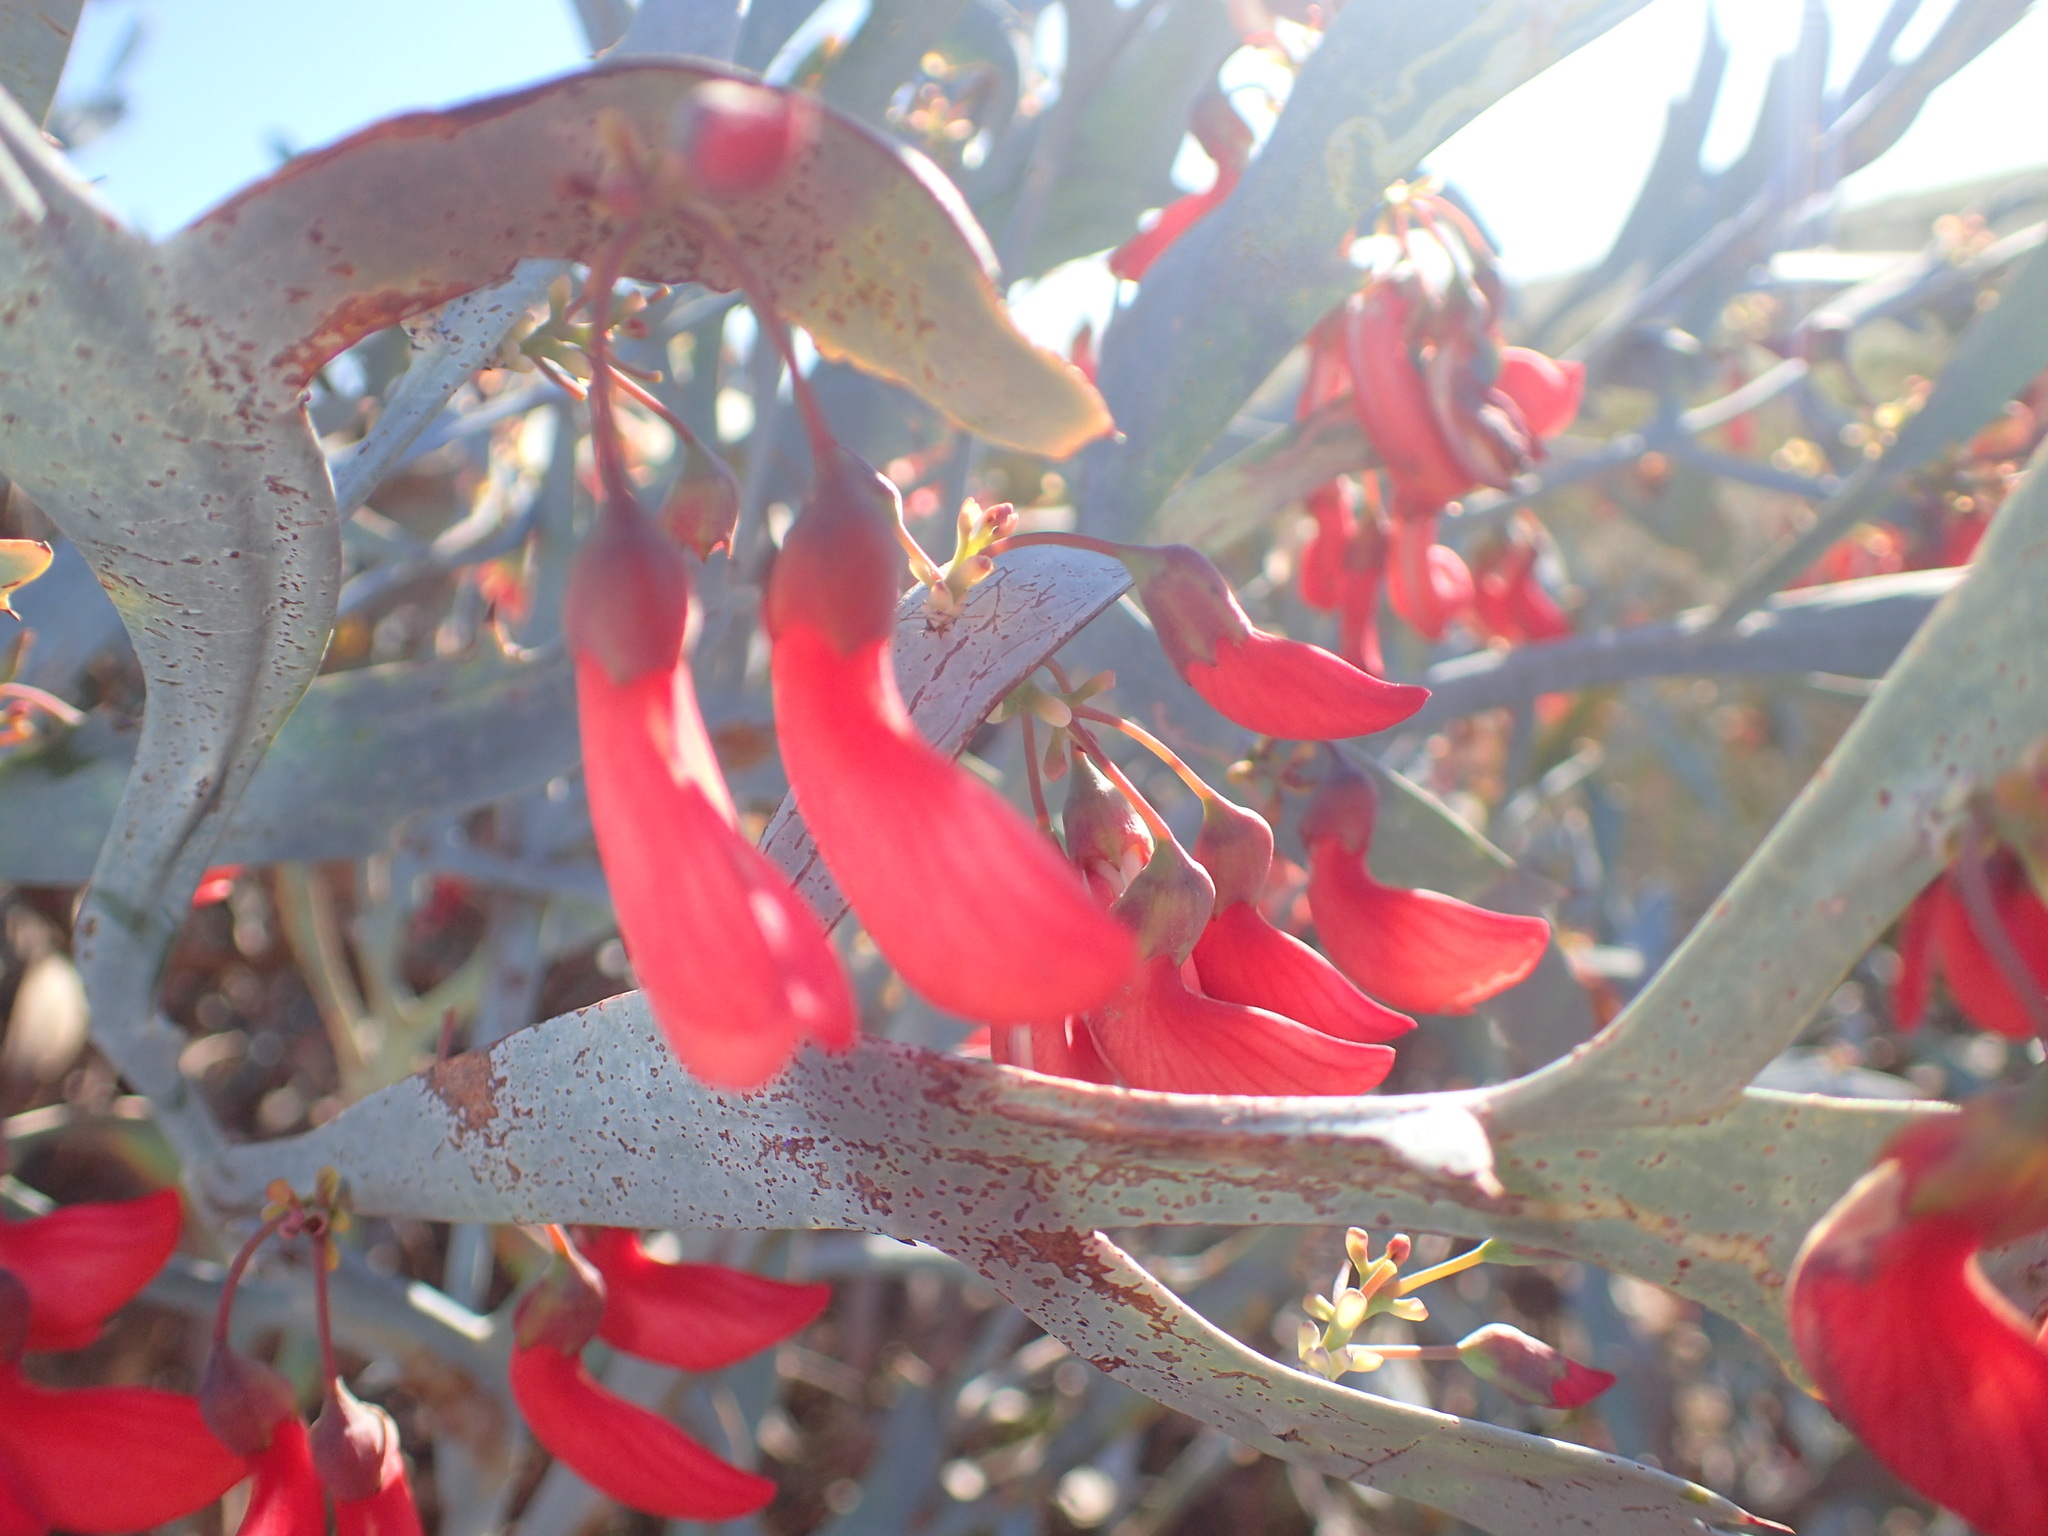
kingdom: Plantae
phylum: Tracheophyta
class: Magnoliopsida
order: Fabales
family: Fabaceae
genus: Daviesia
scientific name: Daviesia epiphyllum
